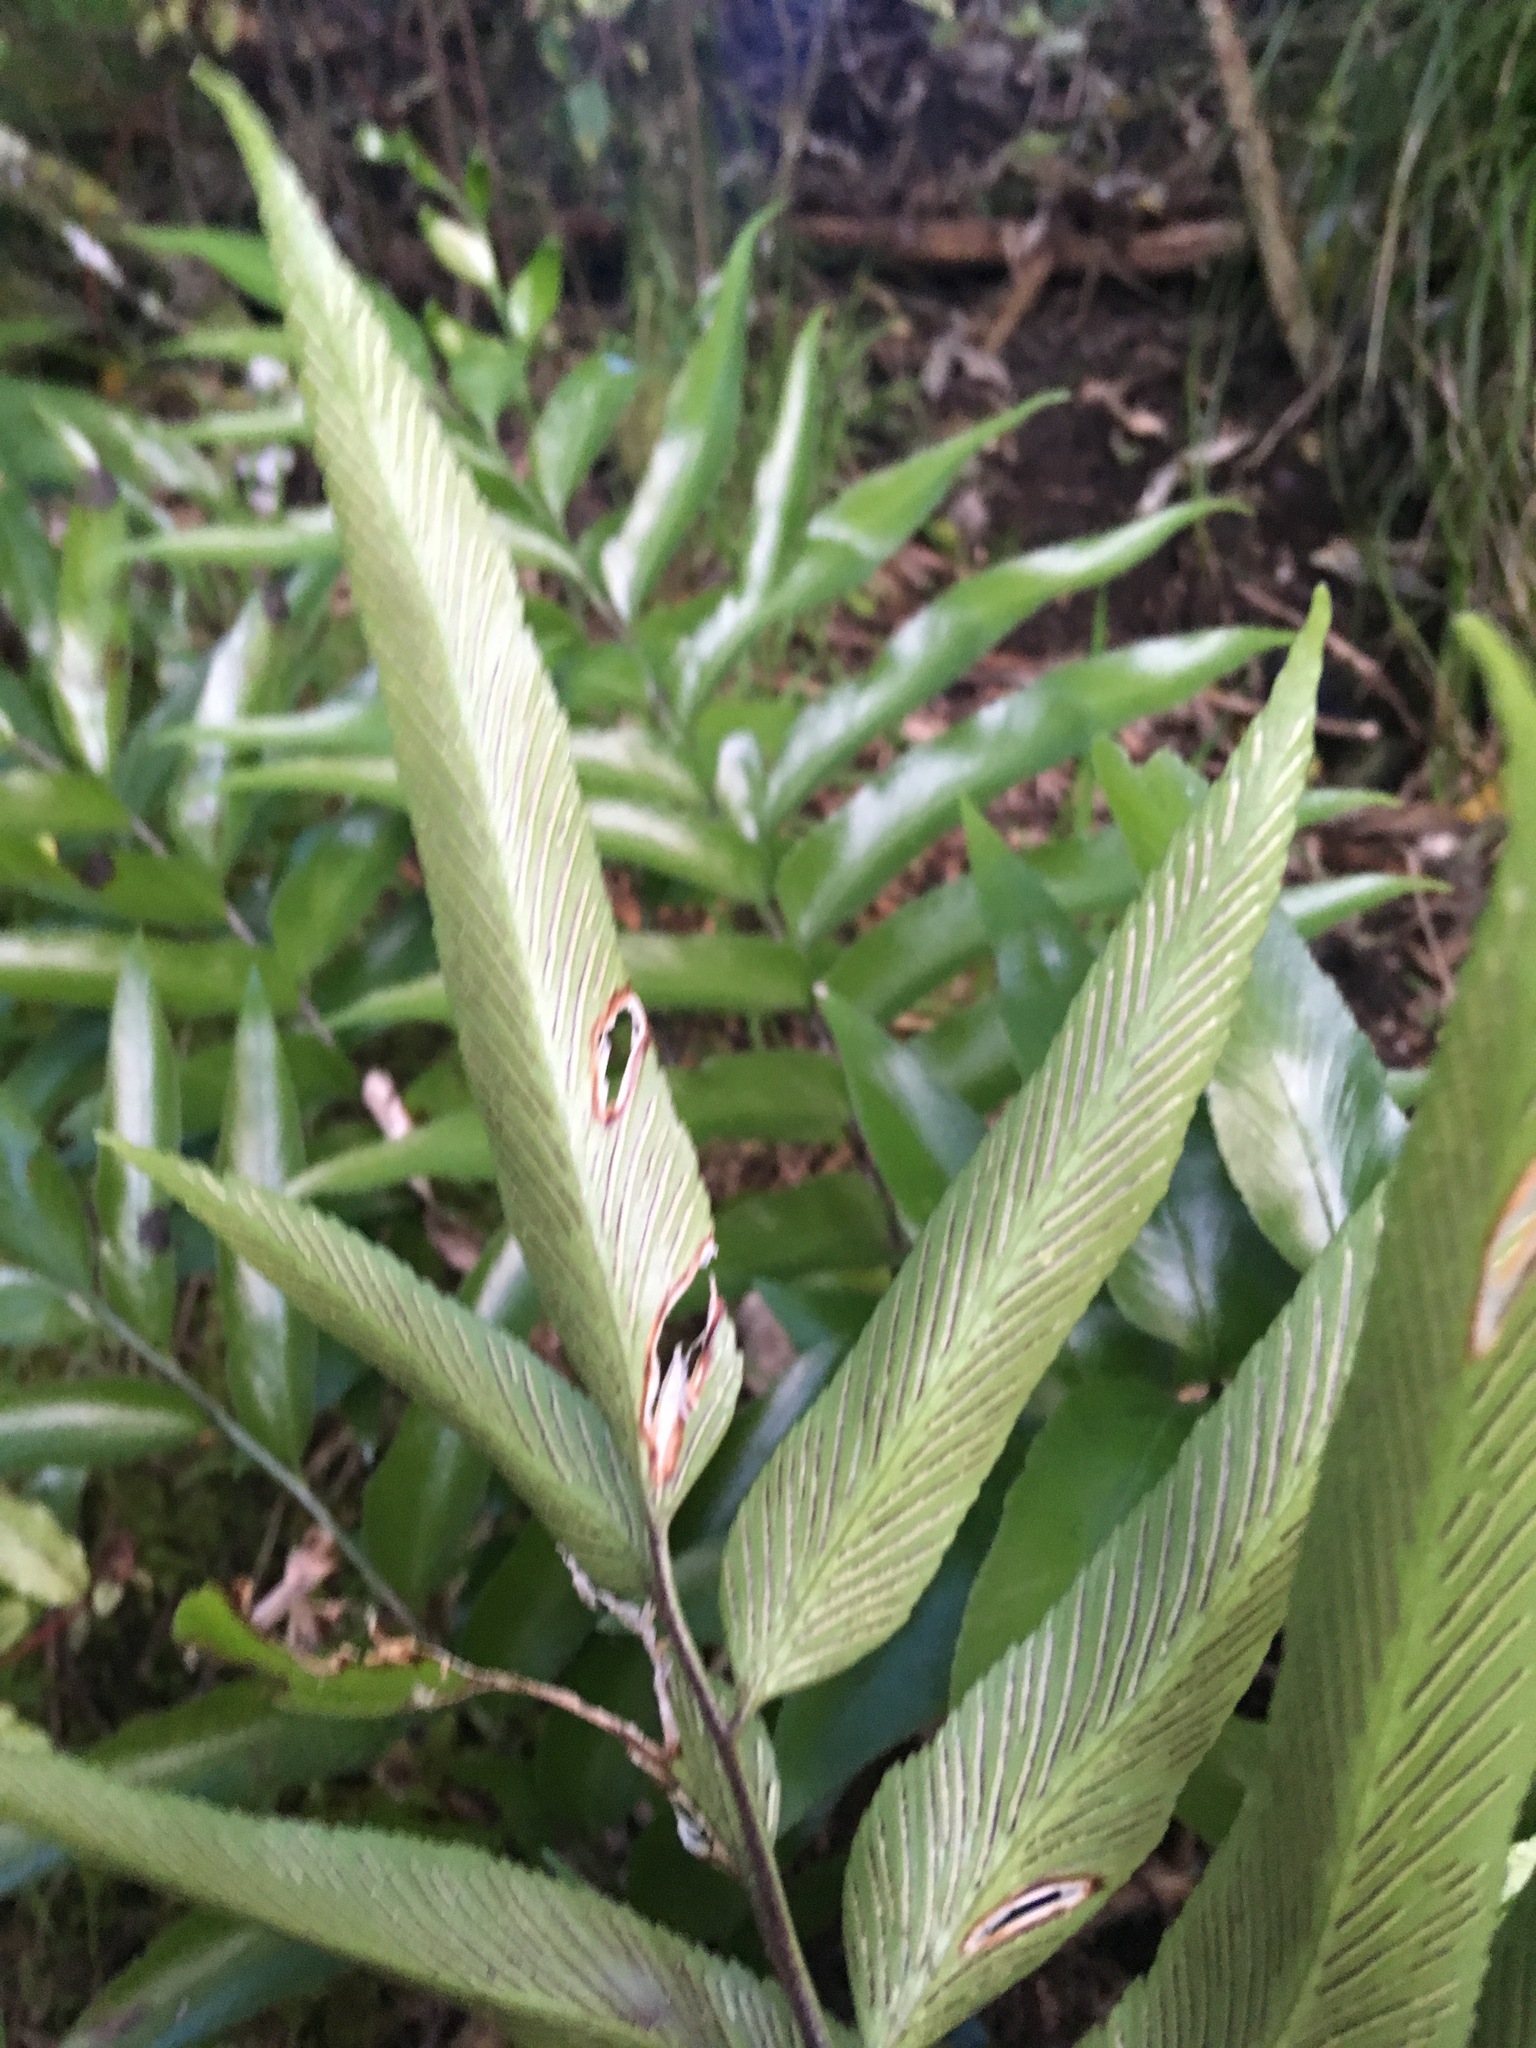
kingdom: Plantae
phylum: Tracheophyta
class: Polypodiopsida
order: Polypodiales
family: Aspleniaceae
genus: Asplenium
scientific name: Asplenium oblongifolium
